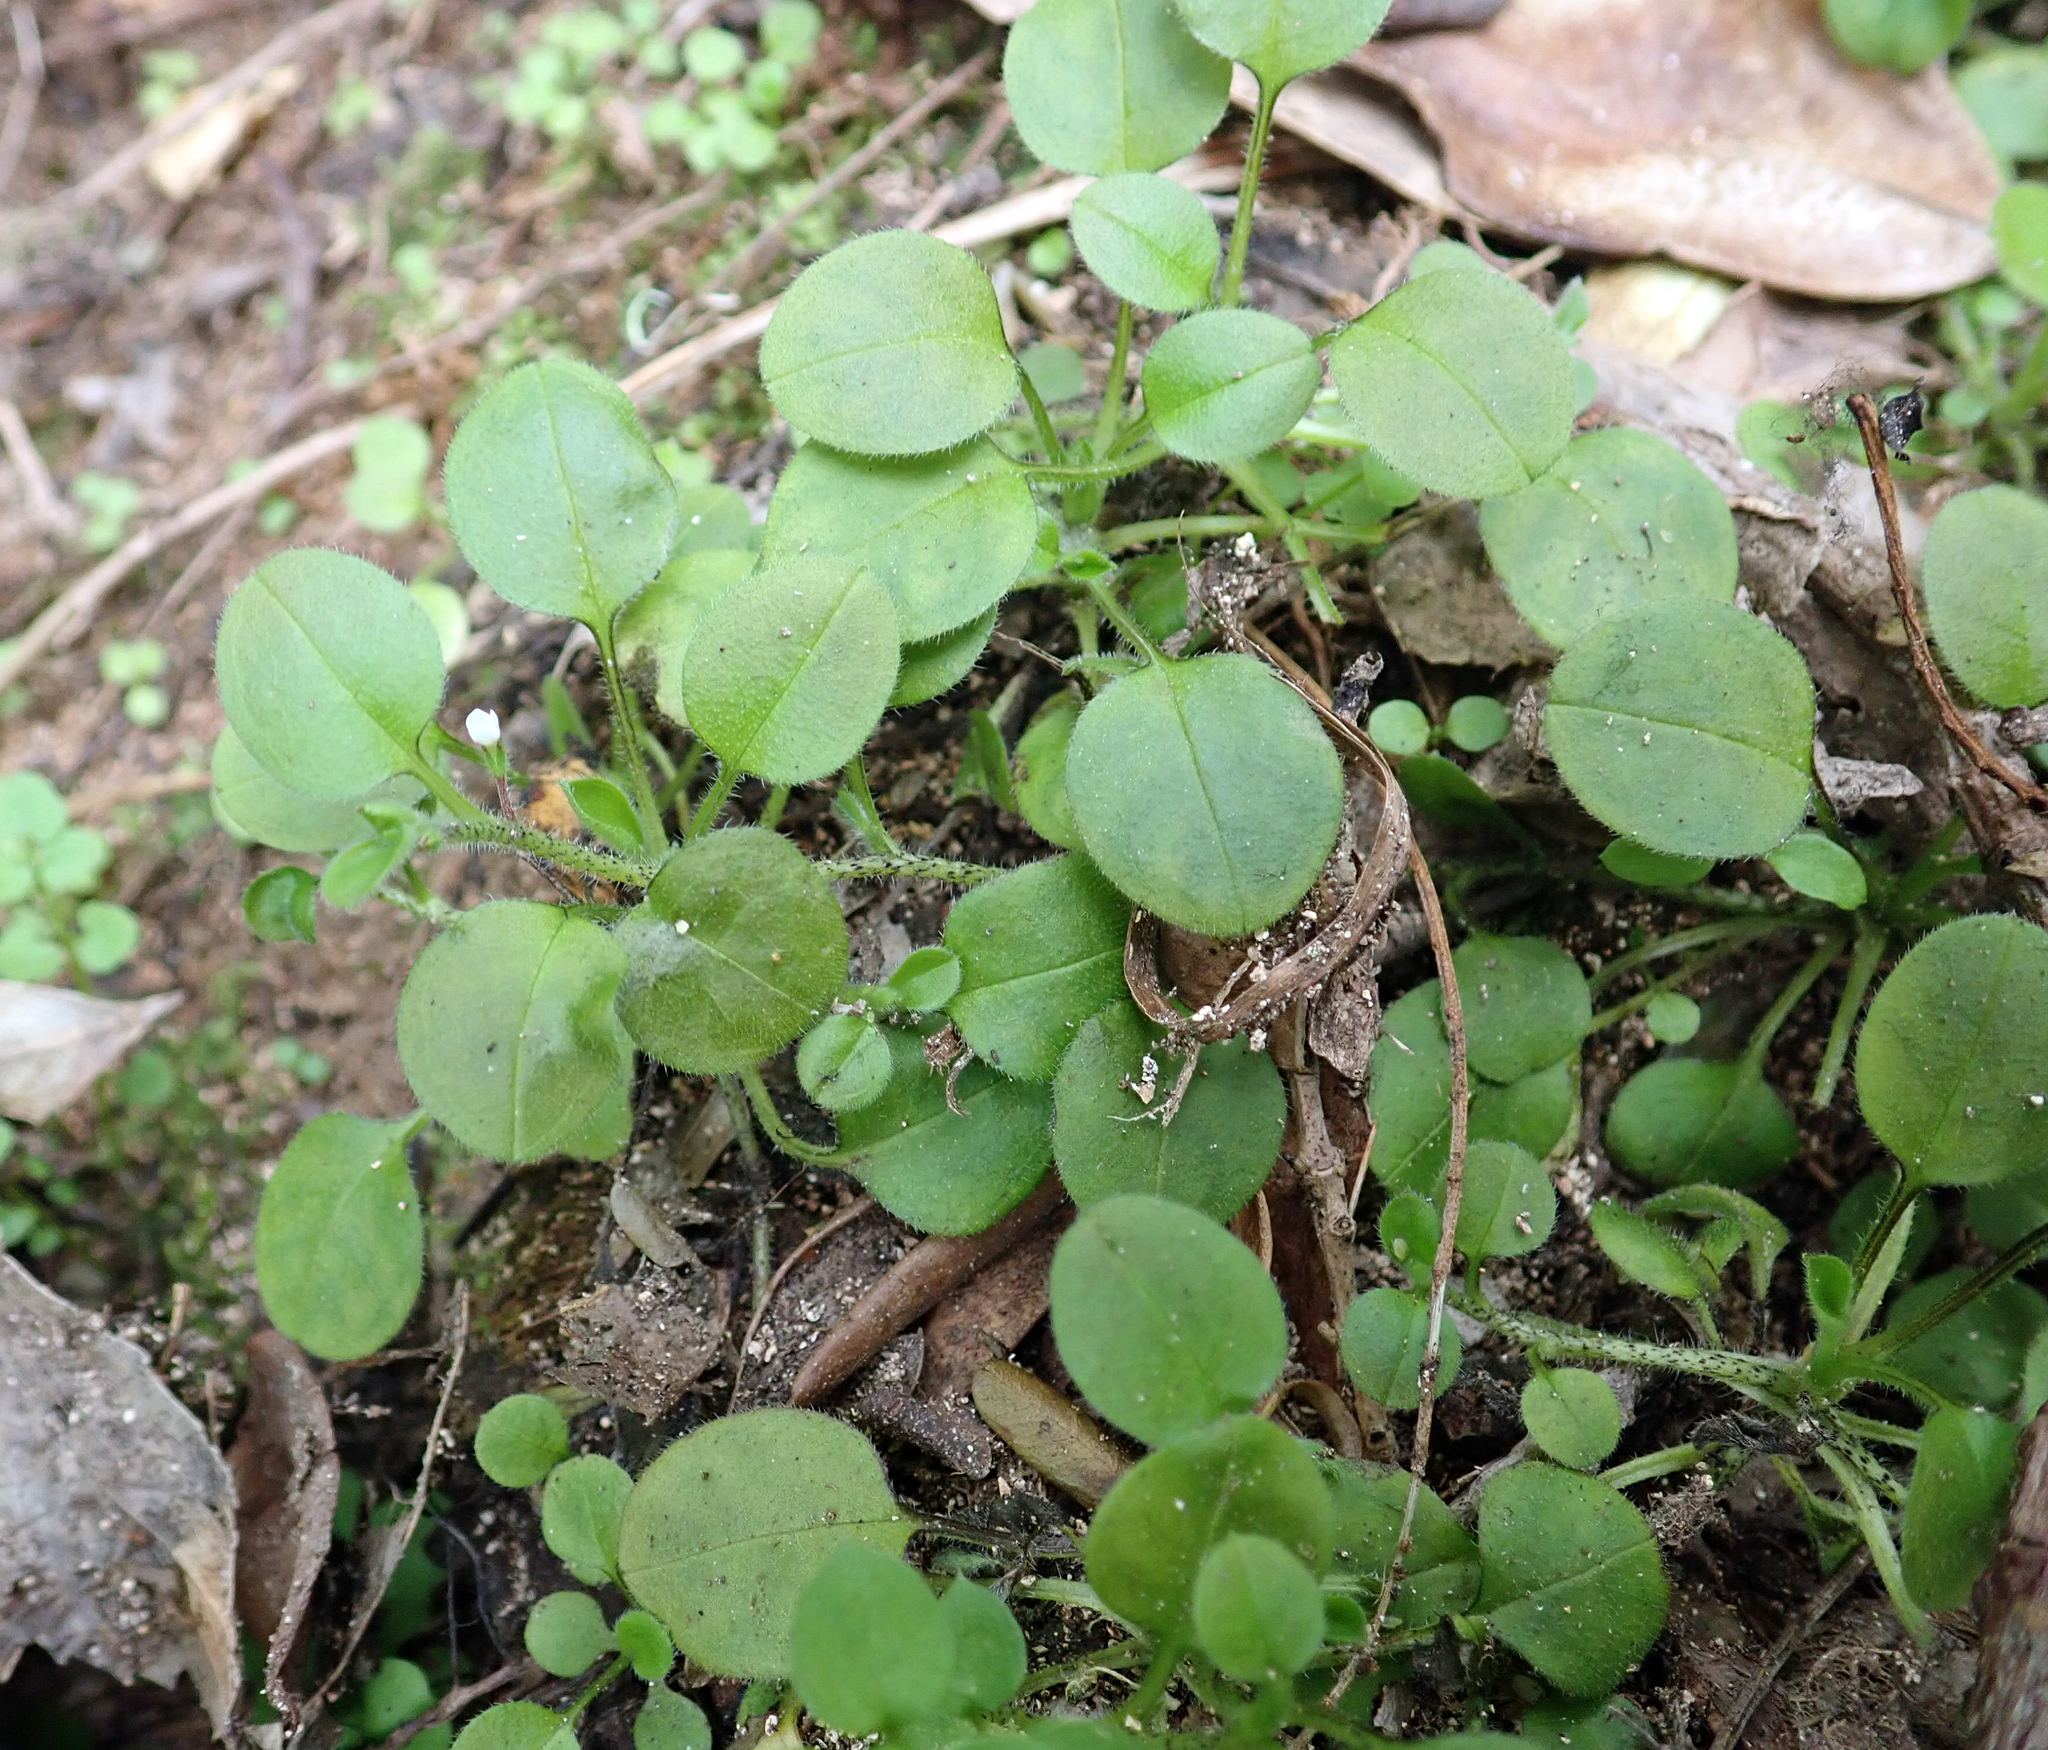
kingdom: Plantae
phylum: Tracheophyta
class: Magnoliopsida
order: Boraginales
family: Boraginaceae
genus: Myosotis
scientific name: Myosotis spathulata
